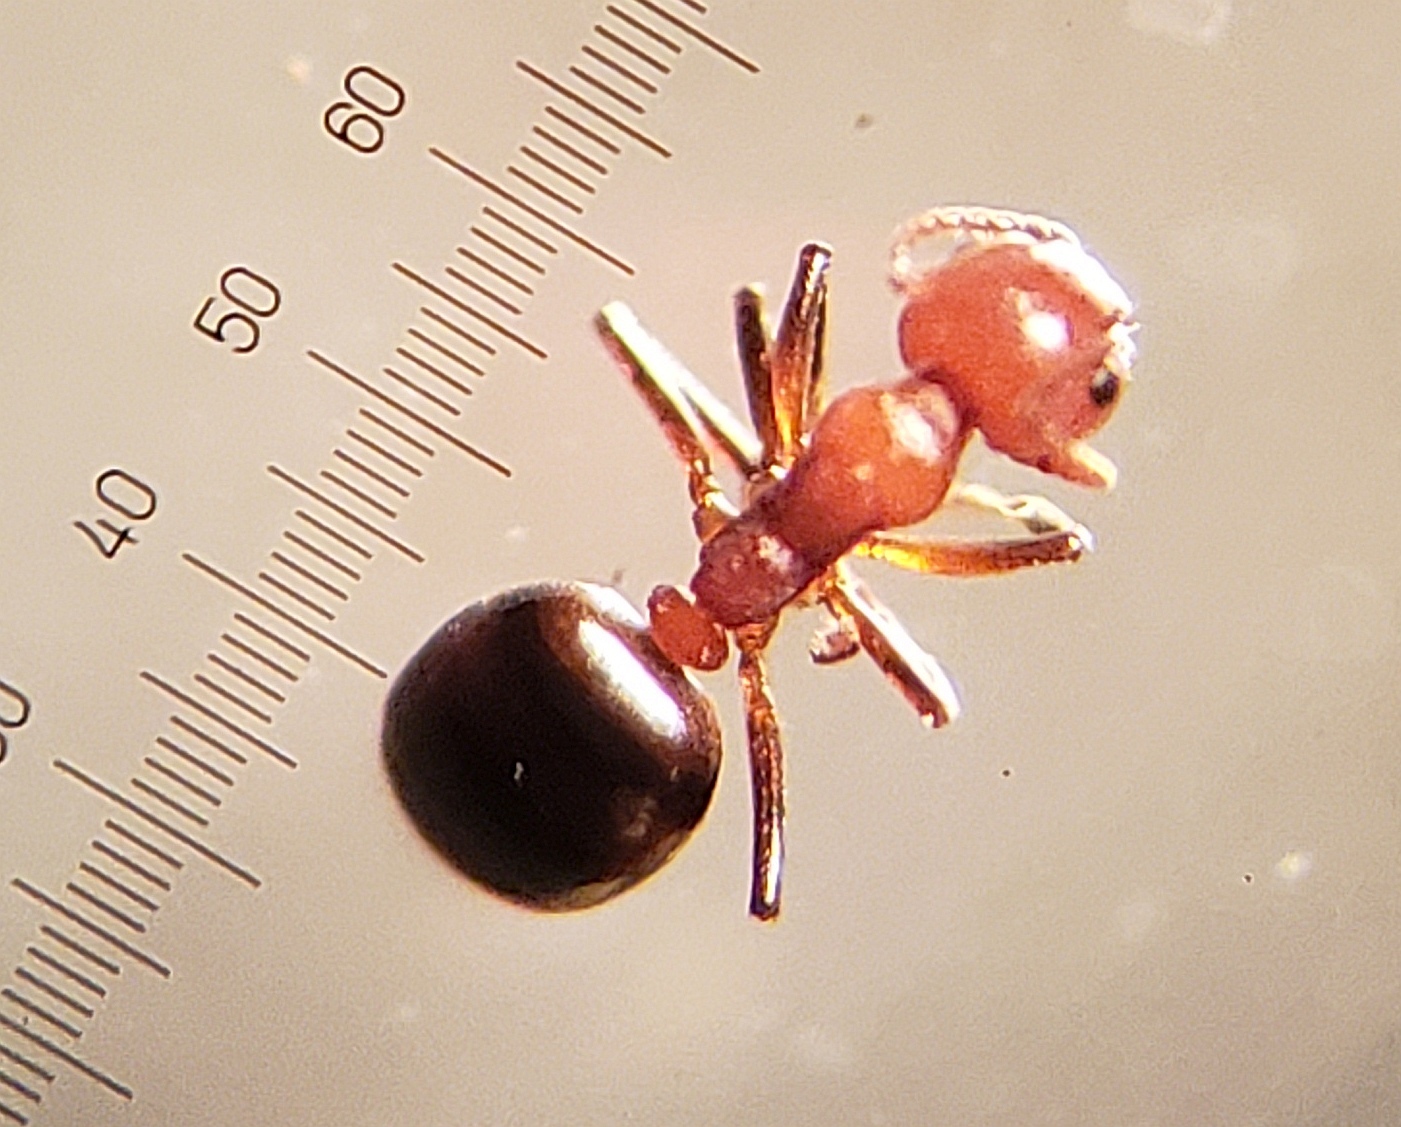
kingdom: Animalia
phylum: Arthropoda
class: Insecta
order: Hymenoptera
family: Formicidae
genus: Dolichoderus
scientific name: Dolichoderus mariae
